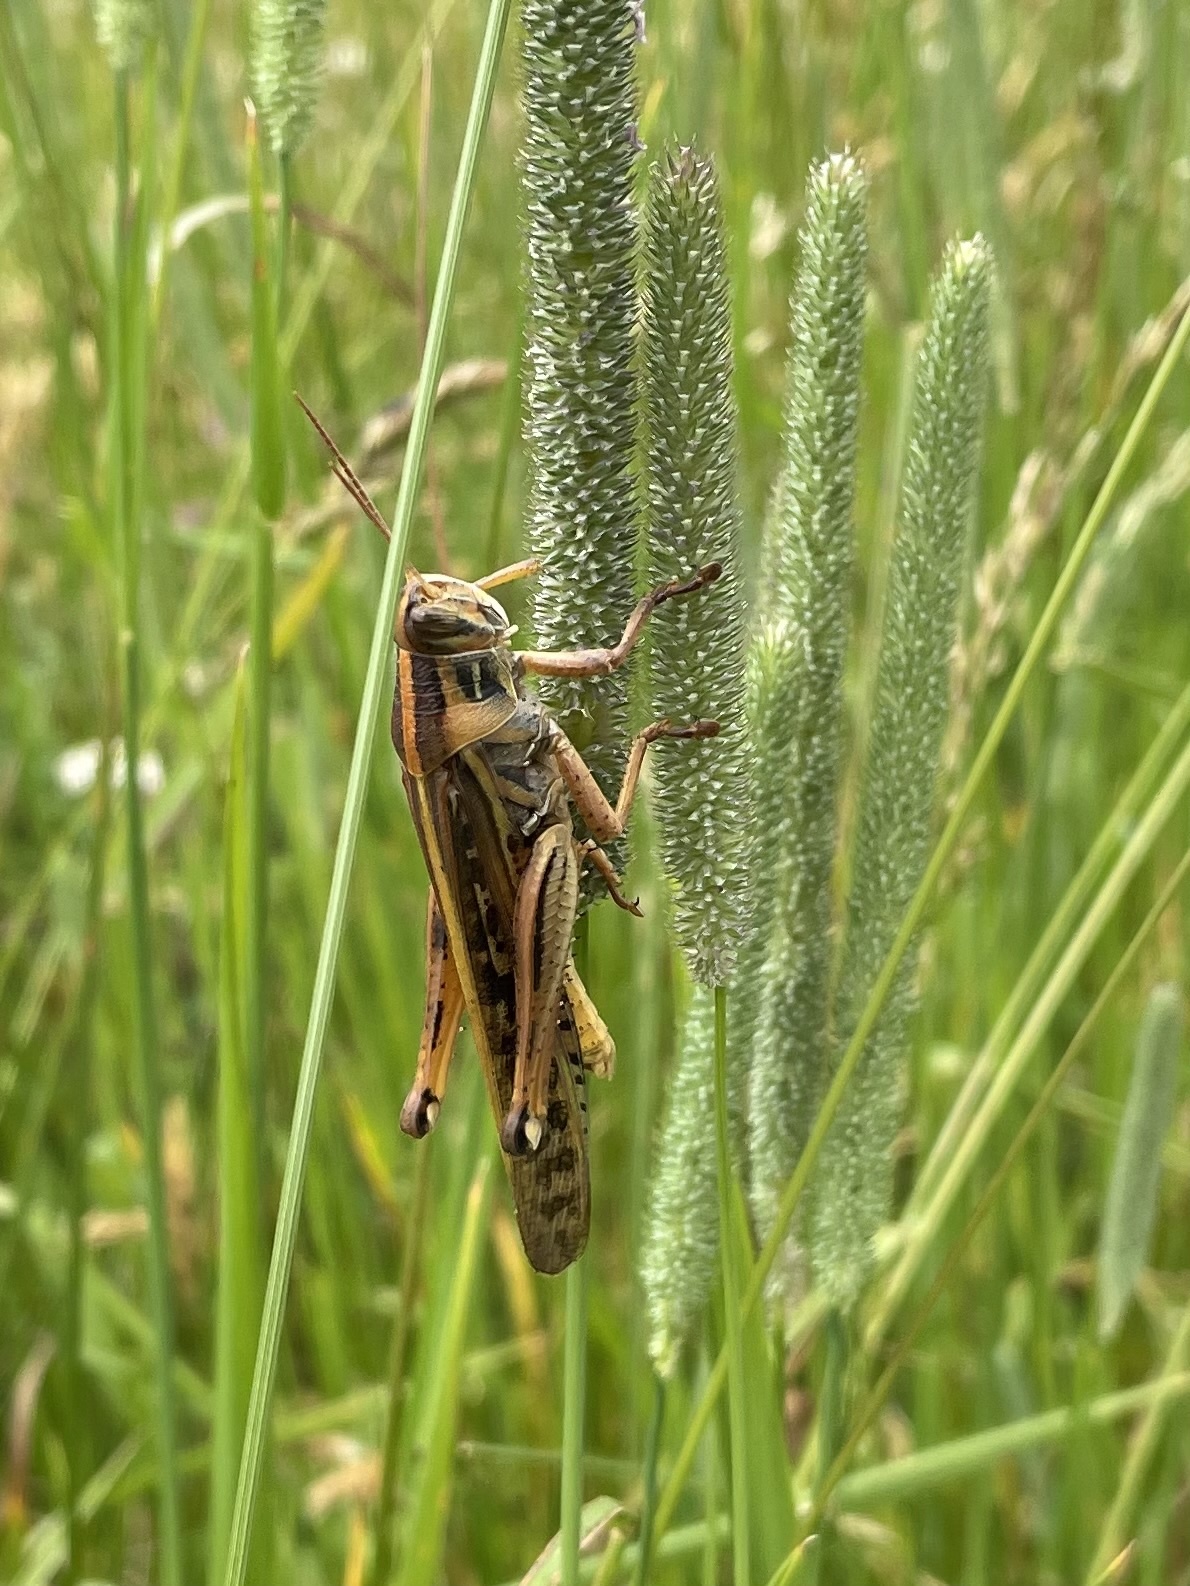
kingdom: Animalia
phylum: Arthropoda
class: Insecta
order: Orthoptera
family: Acrididae
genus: Schistocerca
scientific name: Schistocerca americana
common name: American bird locust
